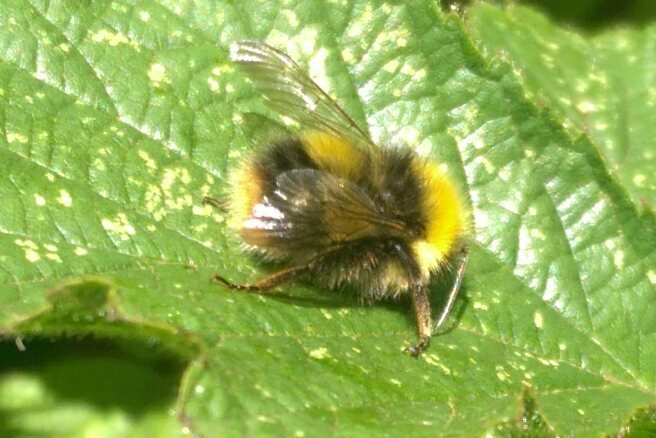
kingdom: Animalia
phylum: Arthropoda
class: Insecta
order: Hymenoptera
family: Apidae
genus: Bombus
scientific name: Bombus pratorum
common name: Early humble-bee
